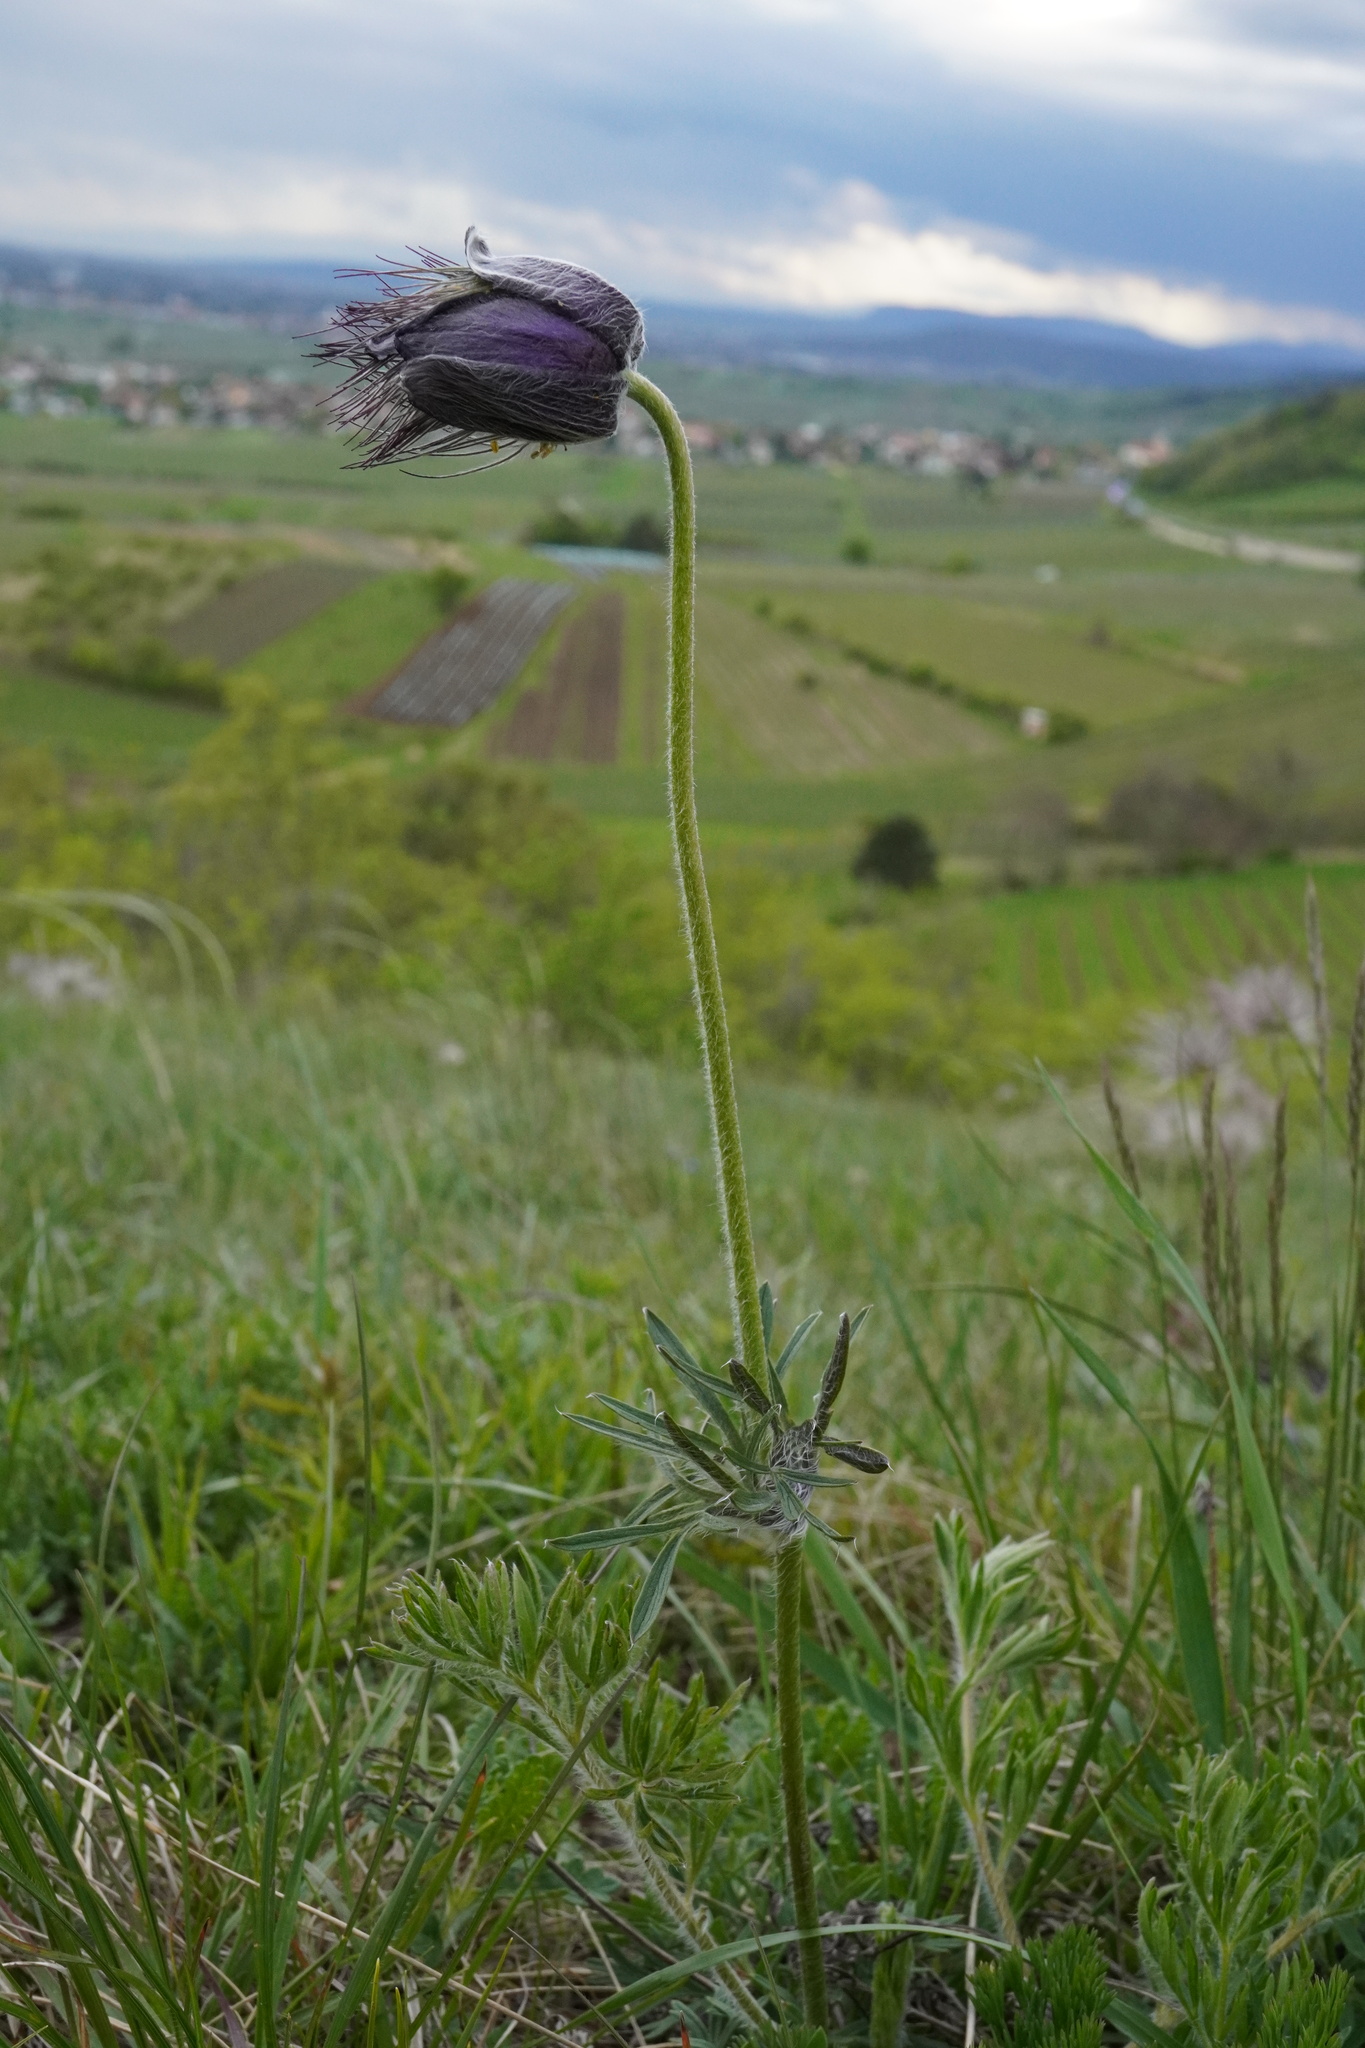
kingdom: Plantae
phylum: Tracheophyta
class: Magnoliopsida
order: Ranunculales
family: Ranunculaceae
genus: Pulsatilla
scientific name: Pulsatilla pratensis
